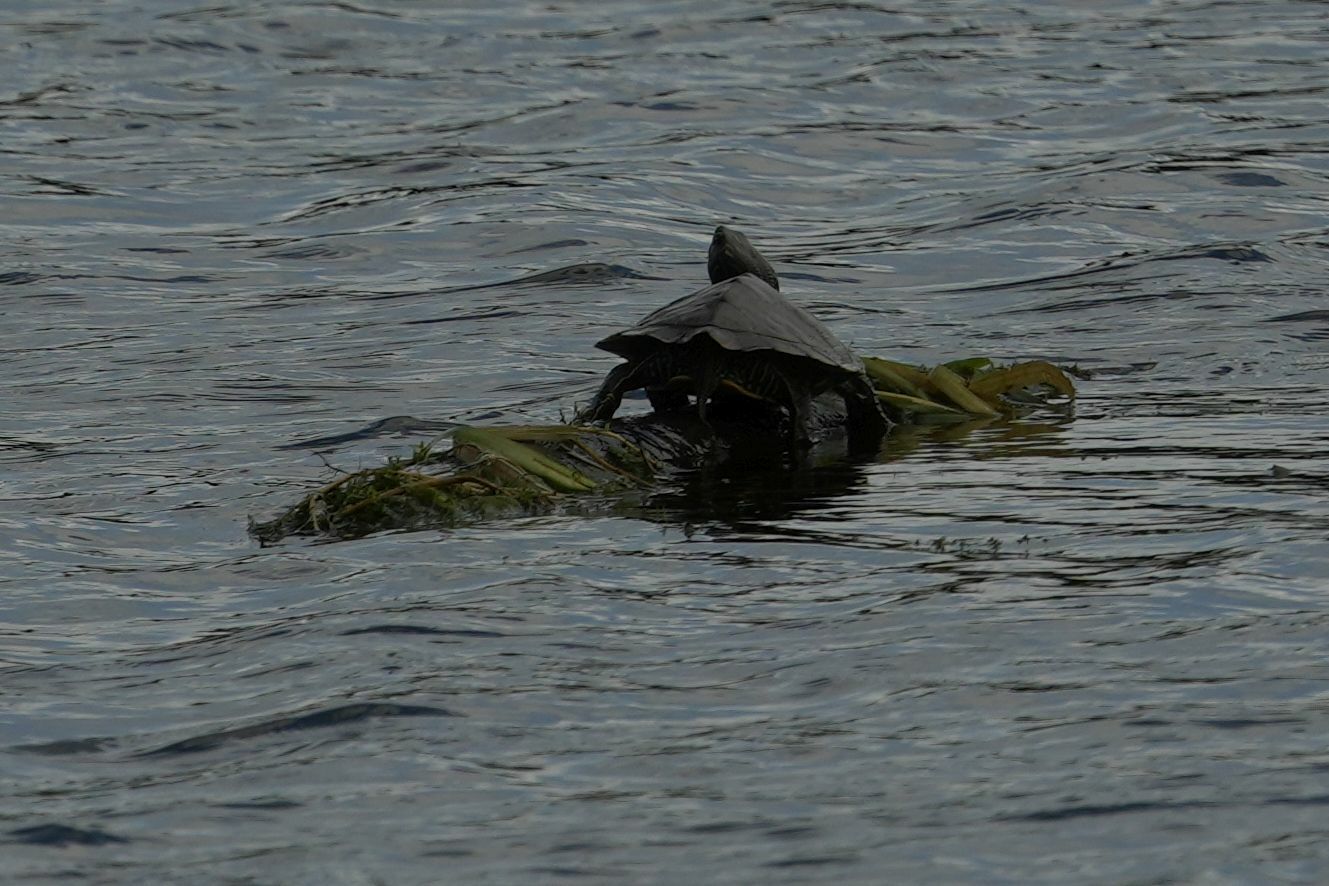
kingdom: Animalia
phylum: Chordata
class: Testudines
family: Emydidae
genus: Graptemys
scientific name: Graptemys geographica
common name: Common map turtle
